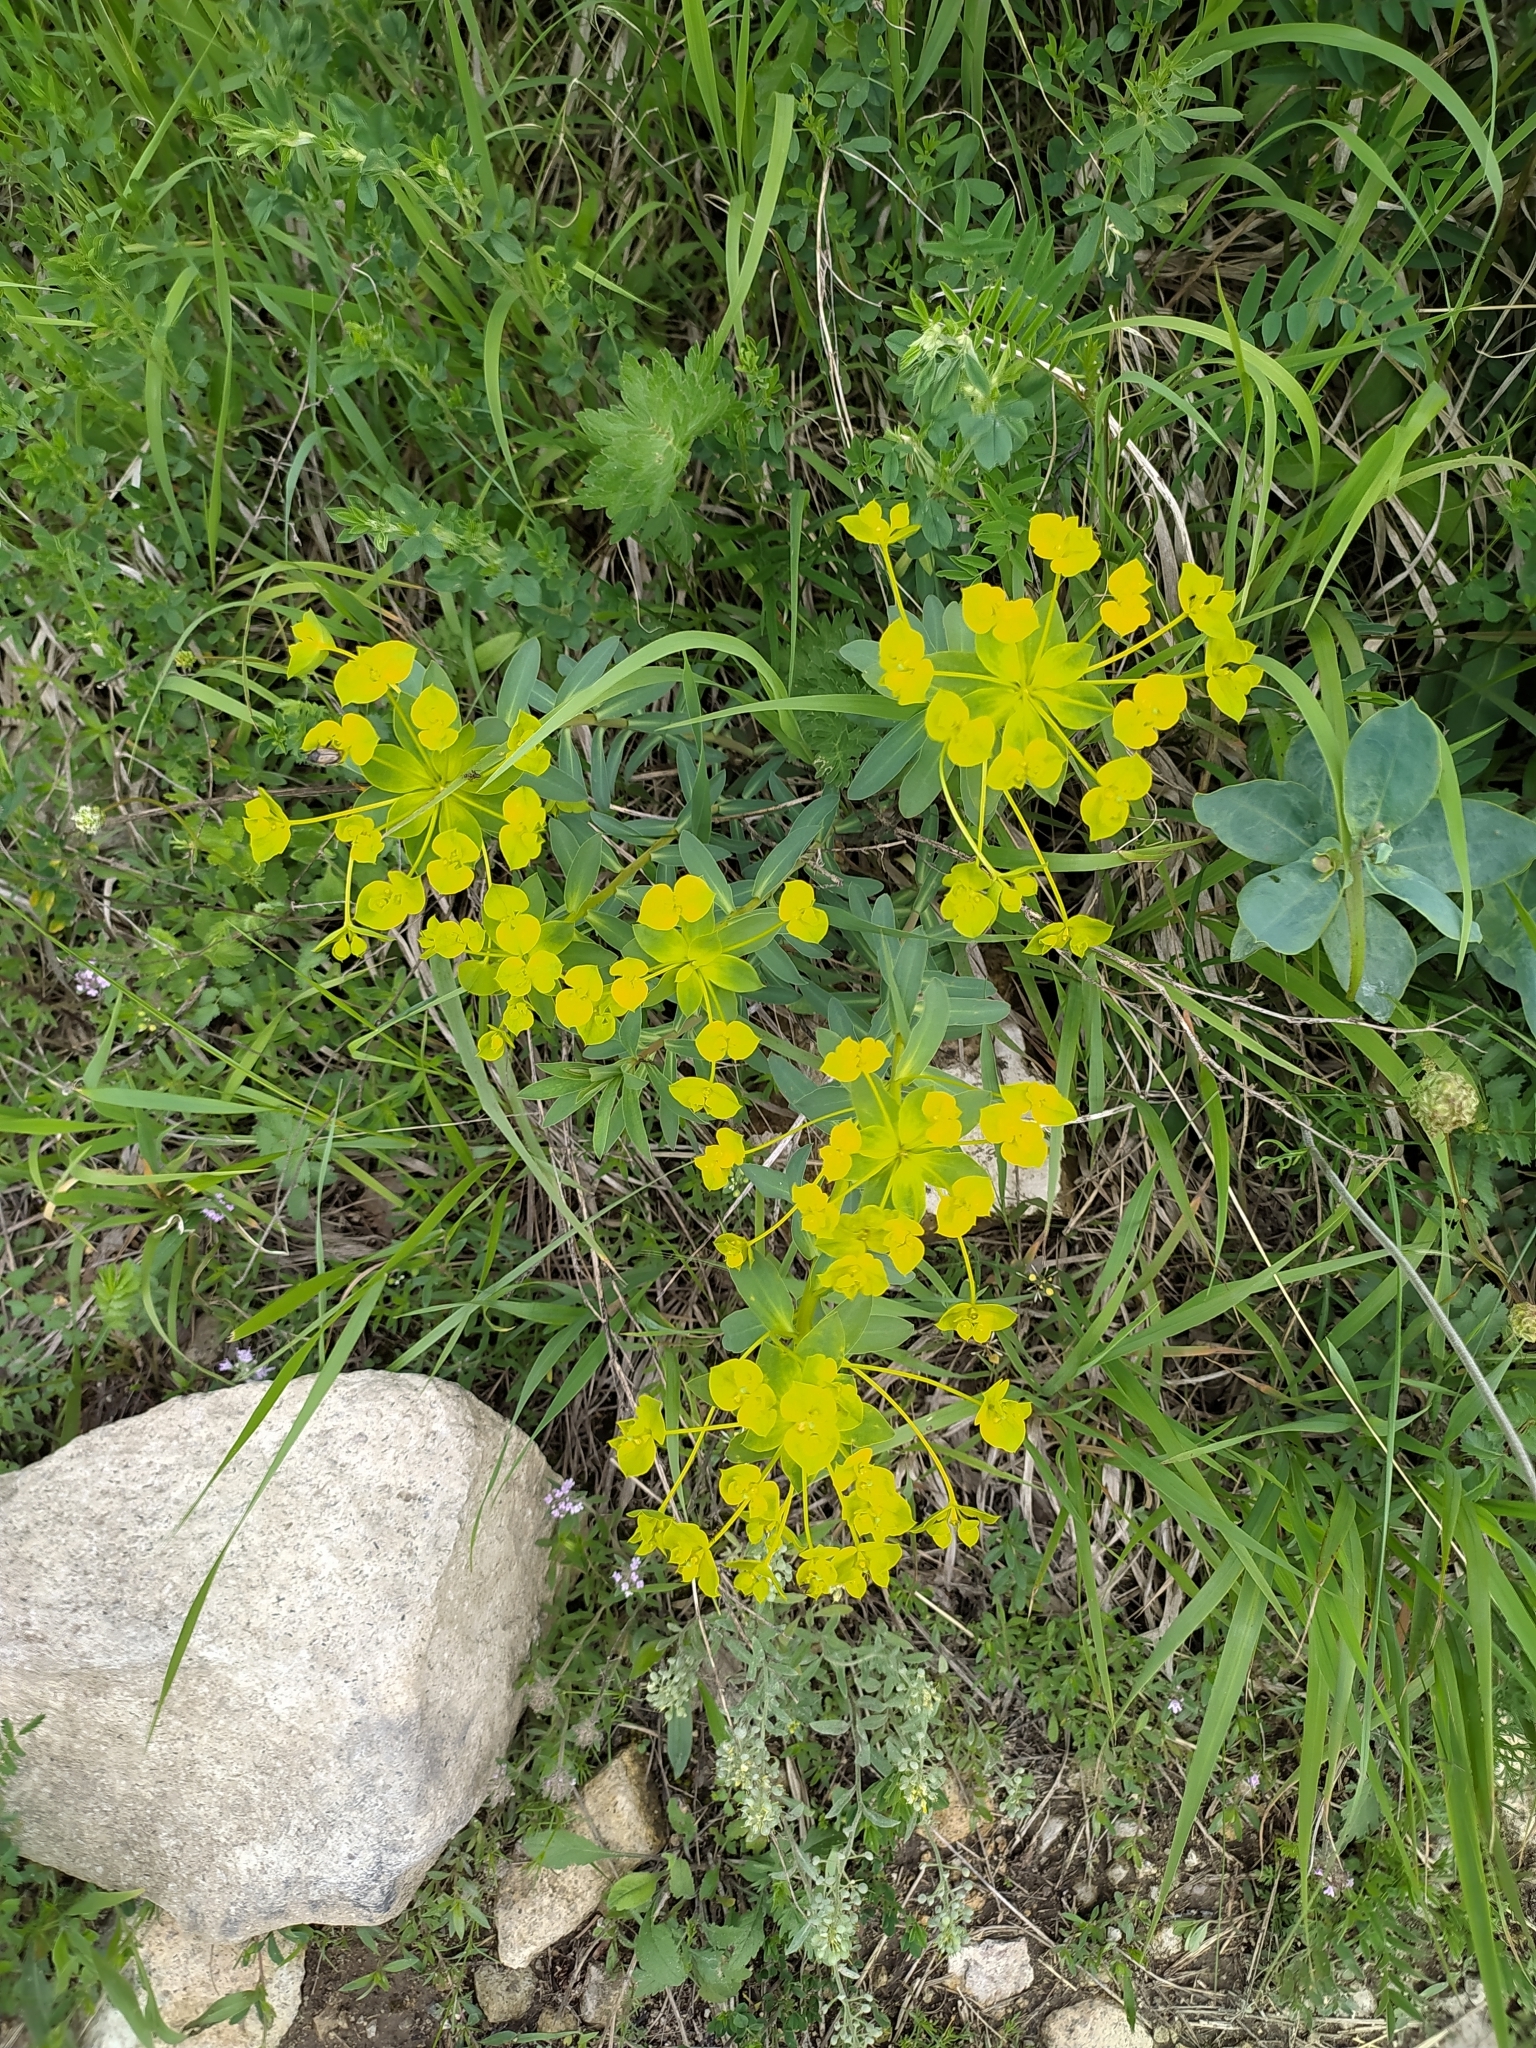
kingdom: Plantae
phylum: Tracheophyta
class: Magnoliopsida
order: Malpighiales
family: Euphorbiaceae
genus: Euphorbia
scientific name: Euphorbia glareosa
